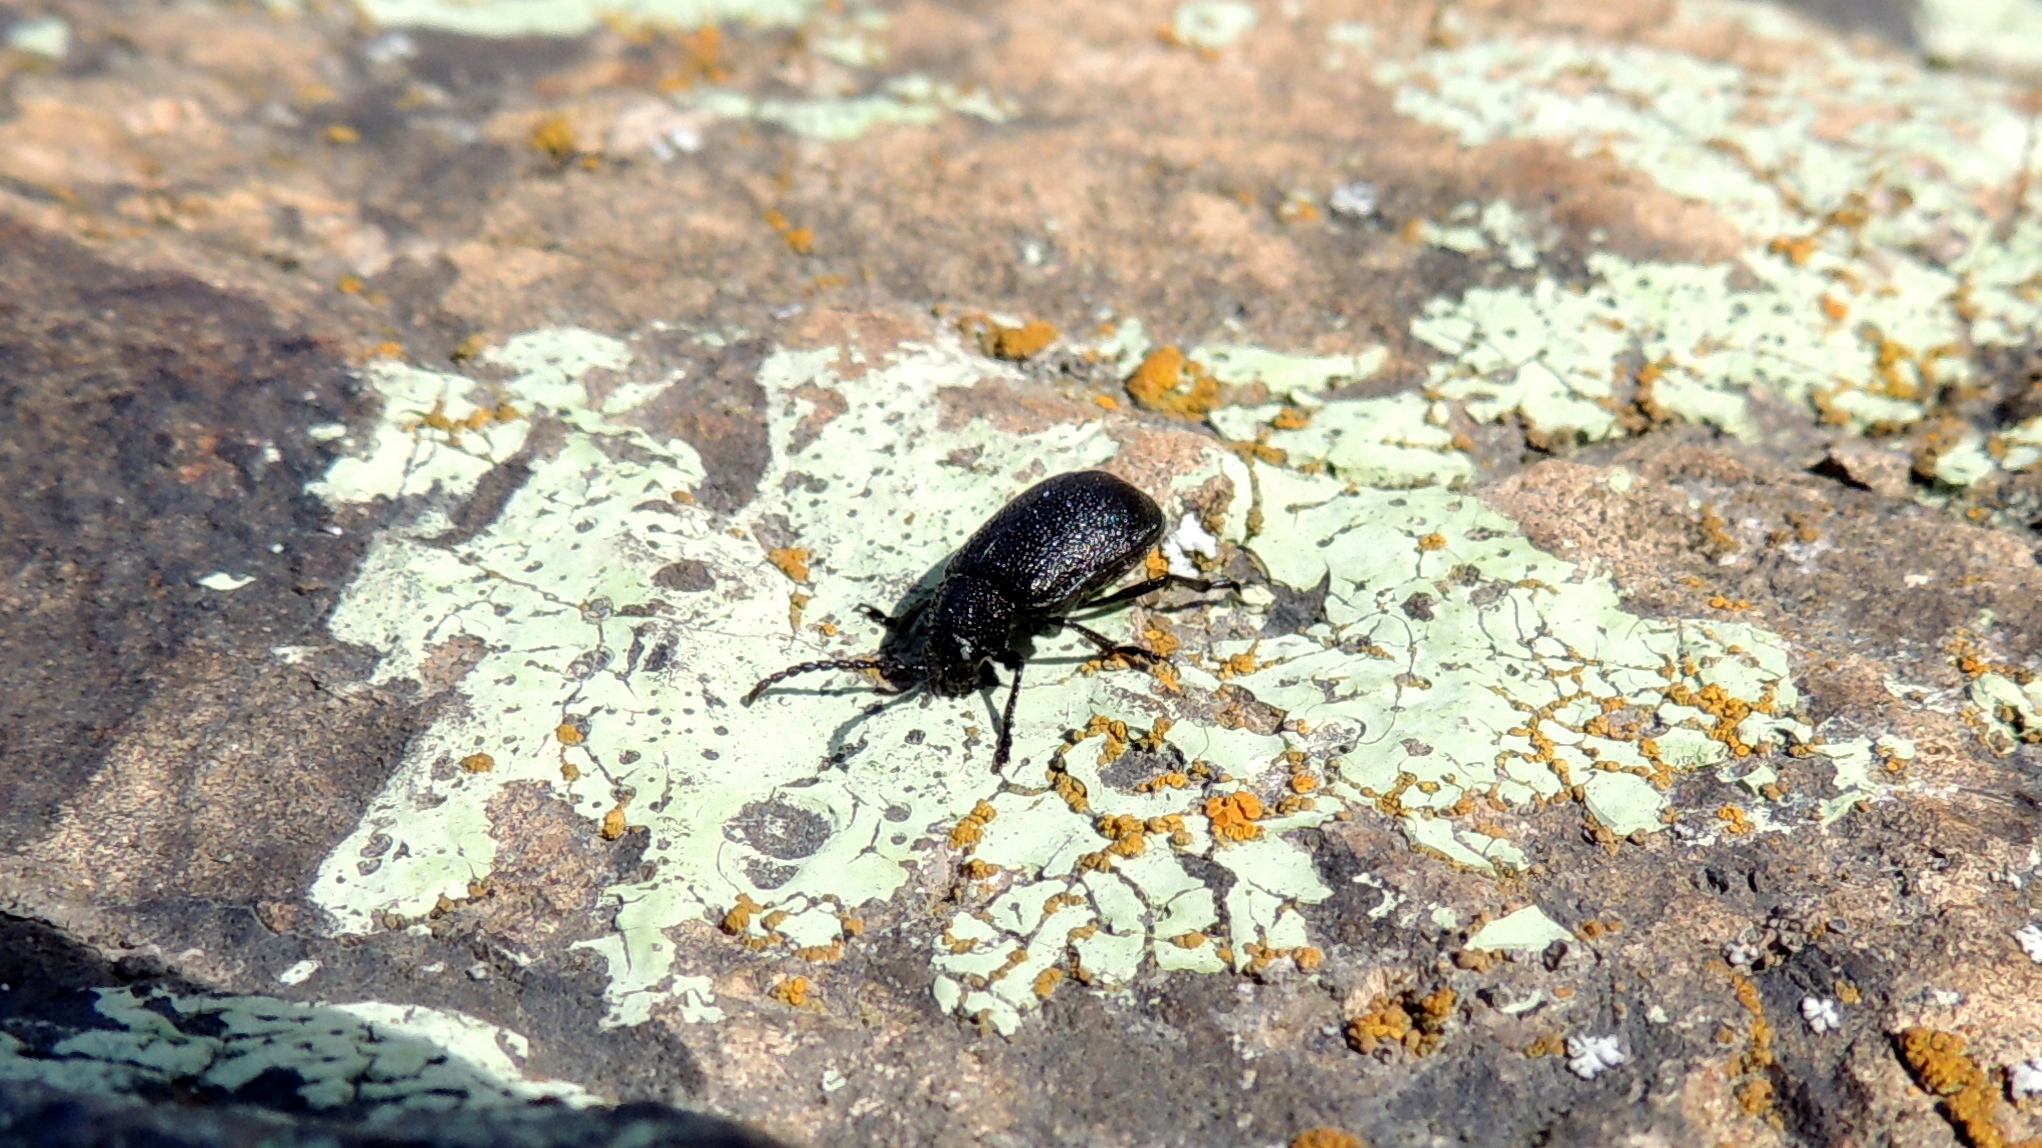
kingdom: Animalia
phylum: Arthropoda
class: Insecta
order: Coleoptera
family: Chrysomelidae
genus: Galeruca
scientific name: Galeruca tanaceti
